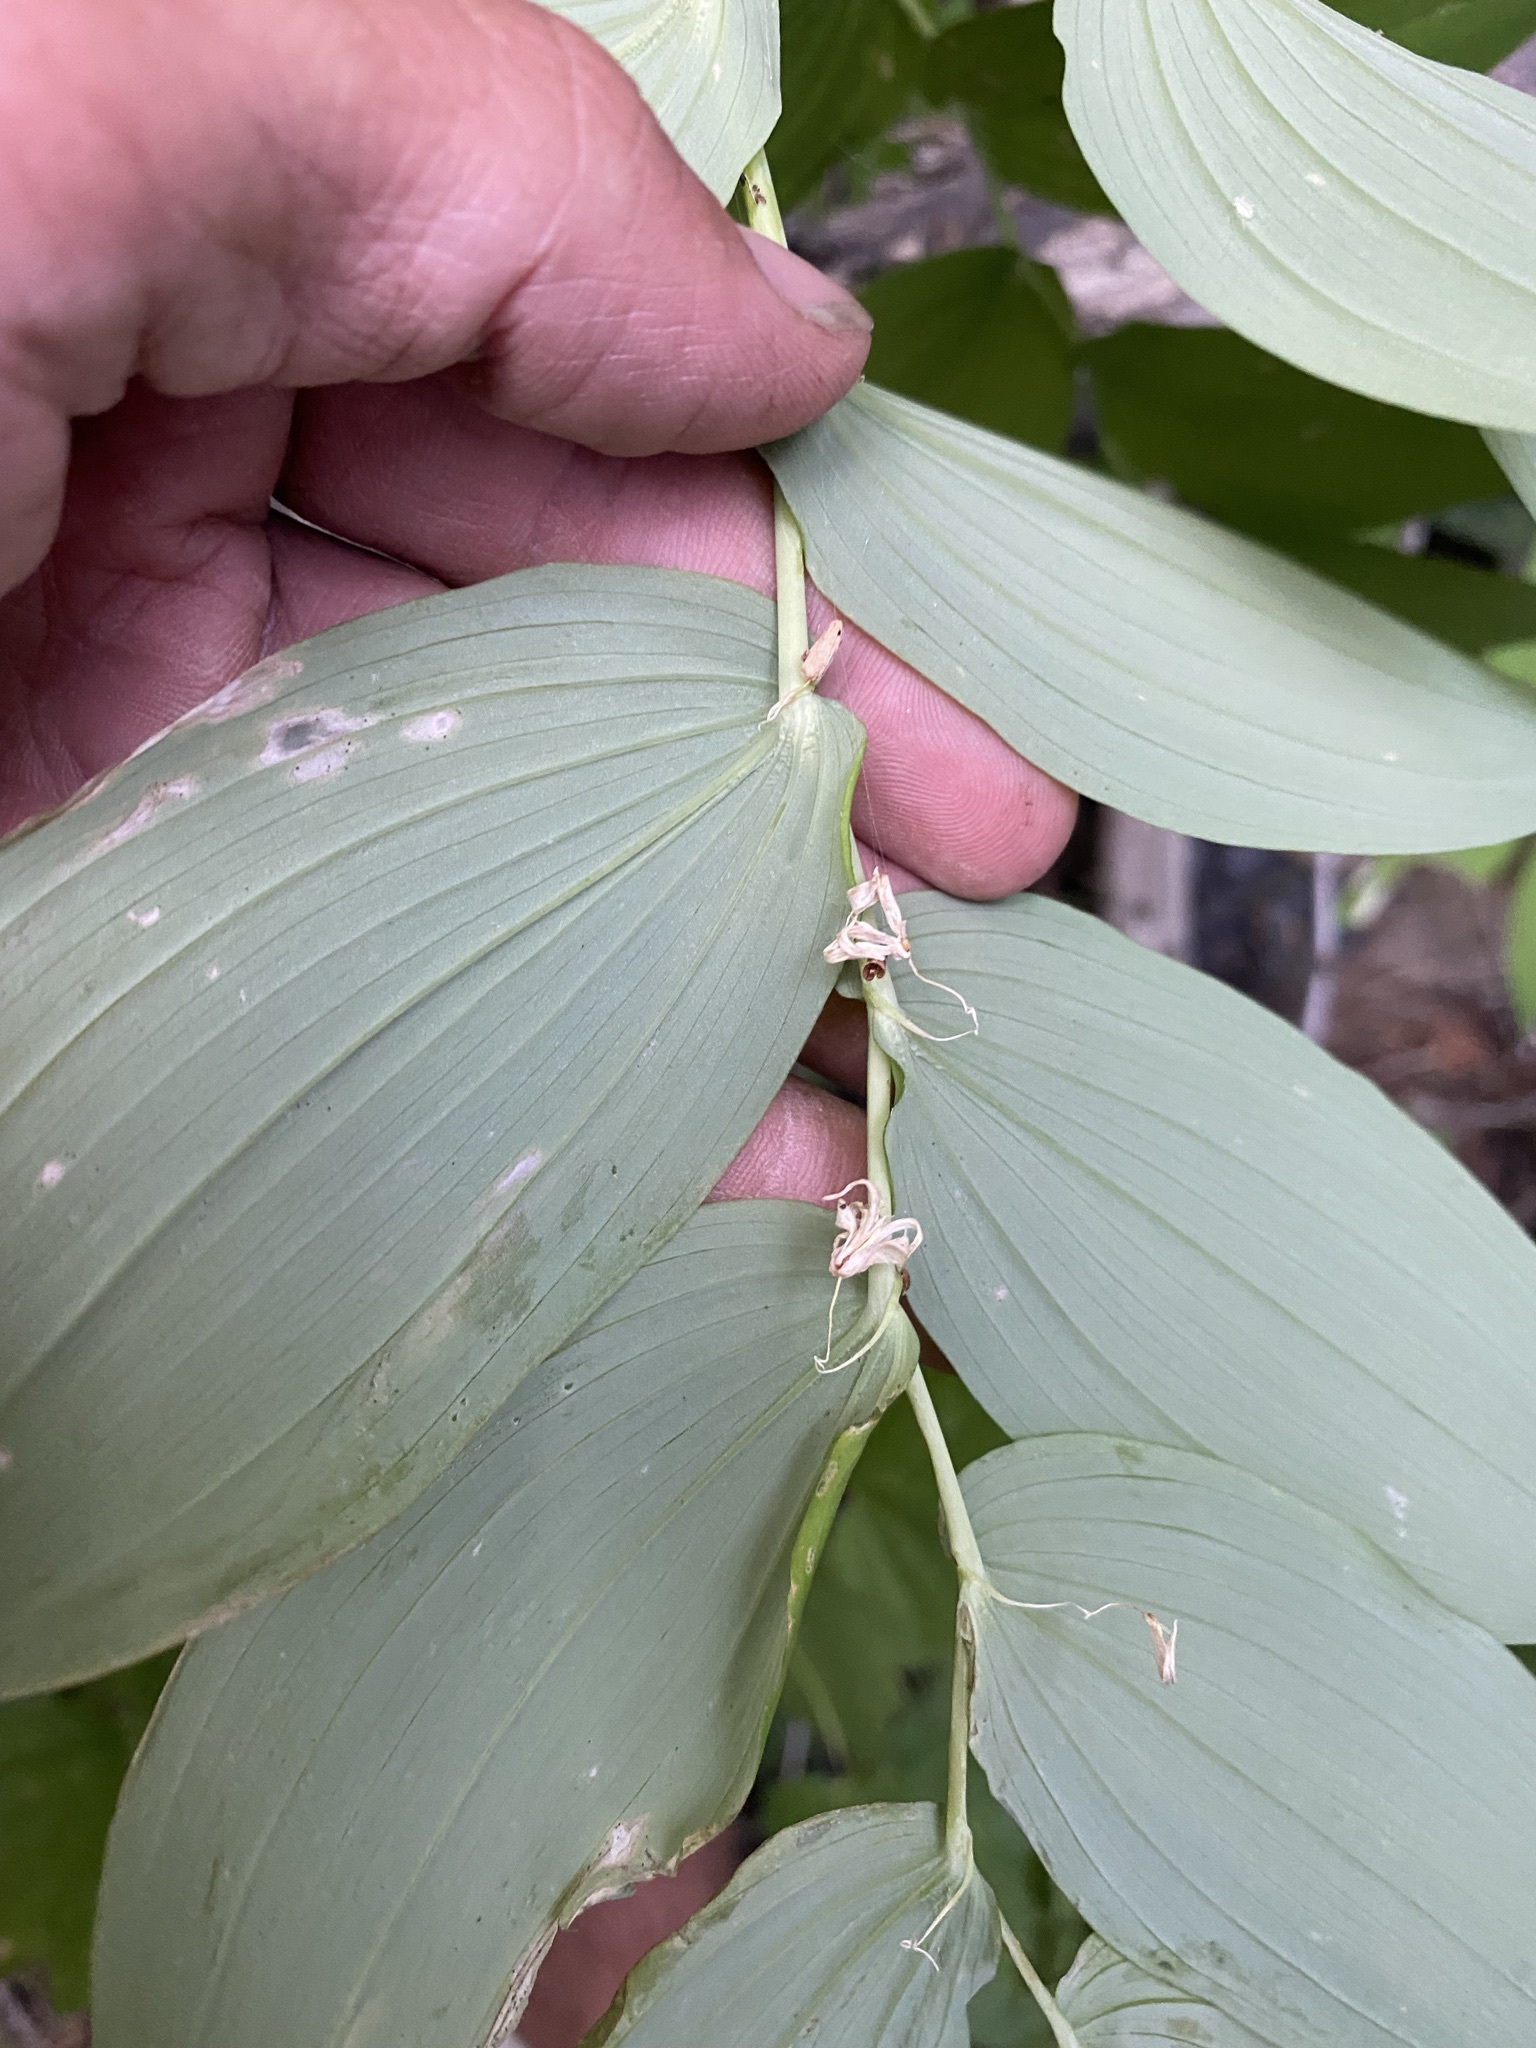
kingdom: Plantae
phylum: Tracheophyta
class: Liliopsida
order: Liliales
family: Liliaceae
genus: Streptopus
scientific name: Streptopus amplexifolius
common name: Clasp twisted stalk
